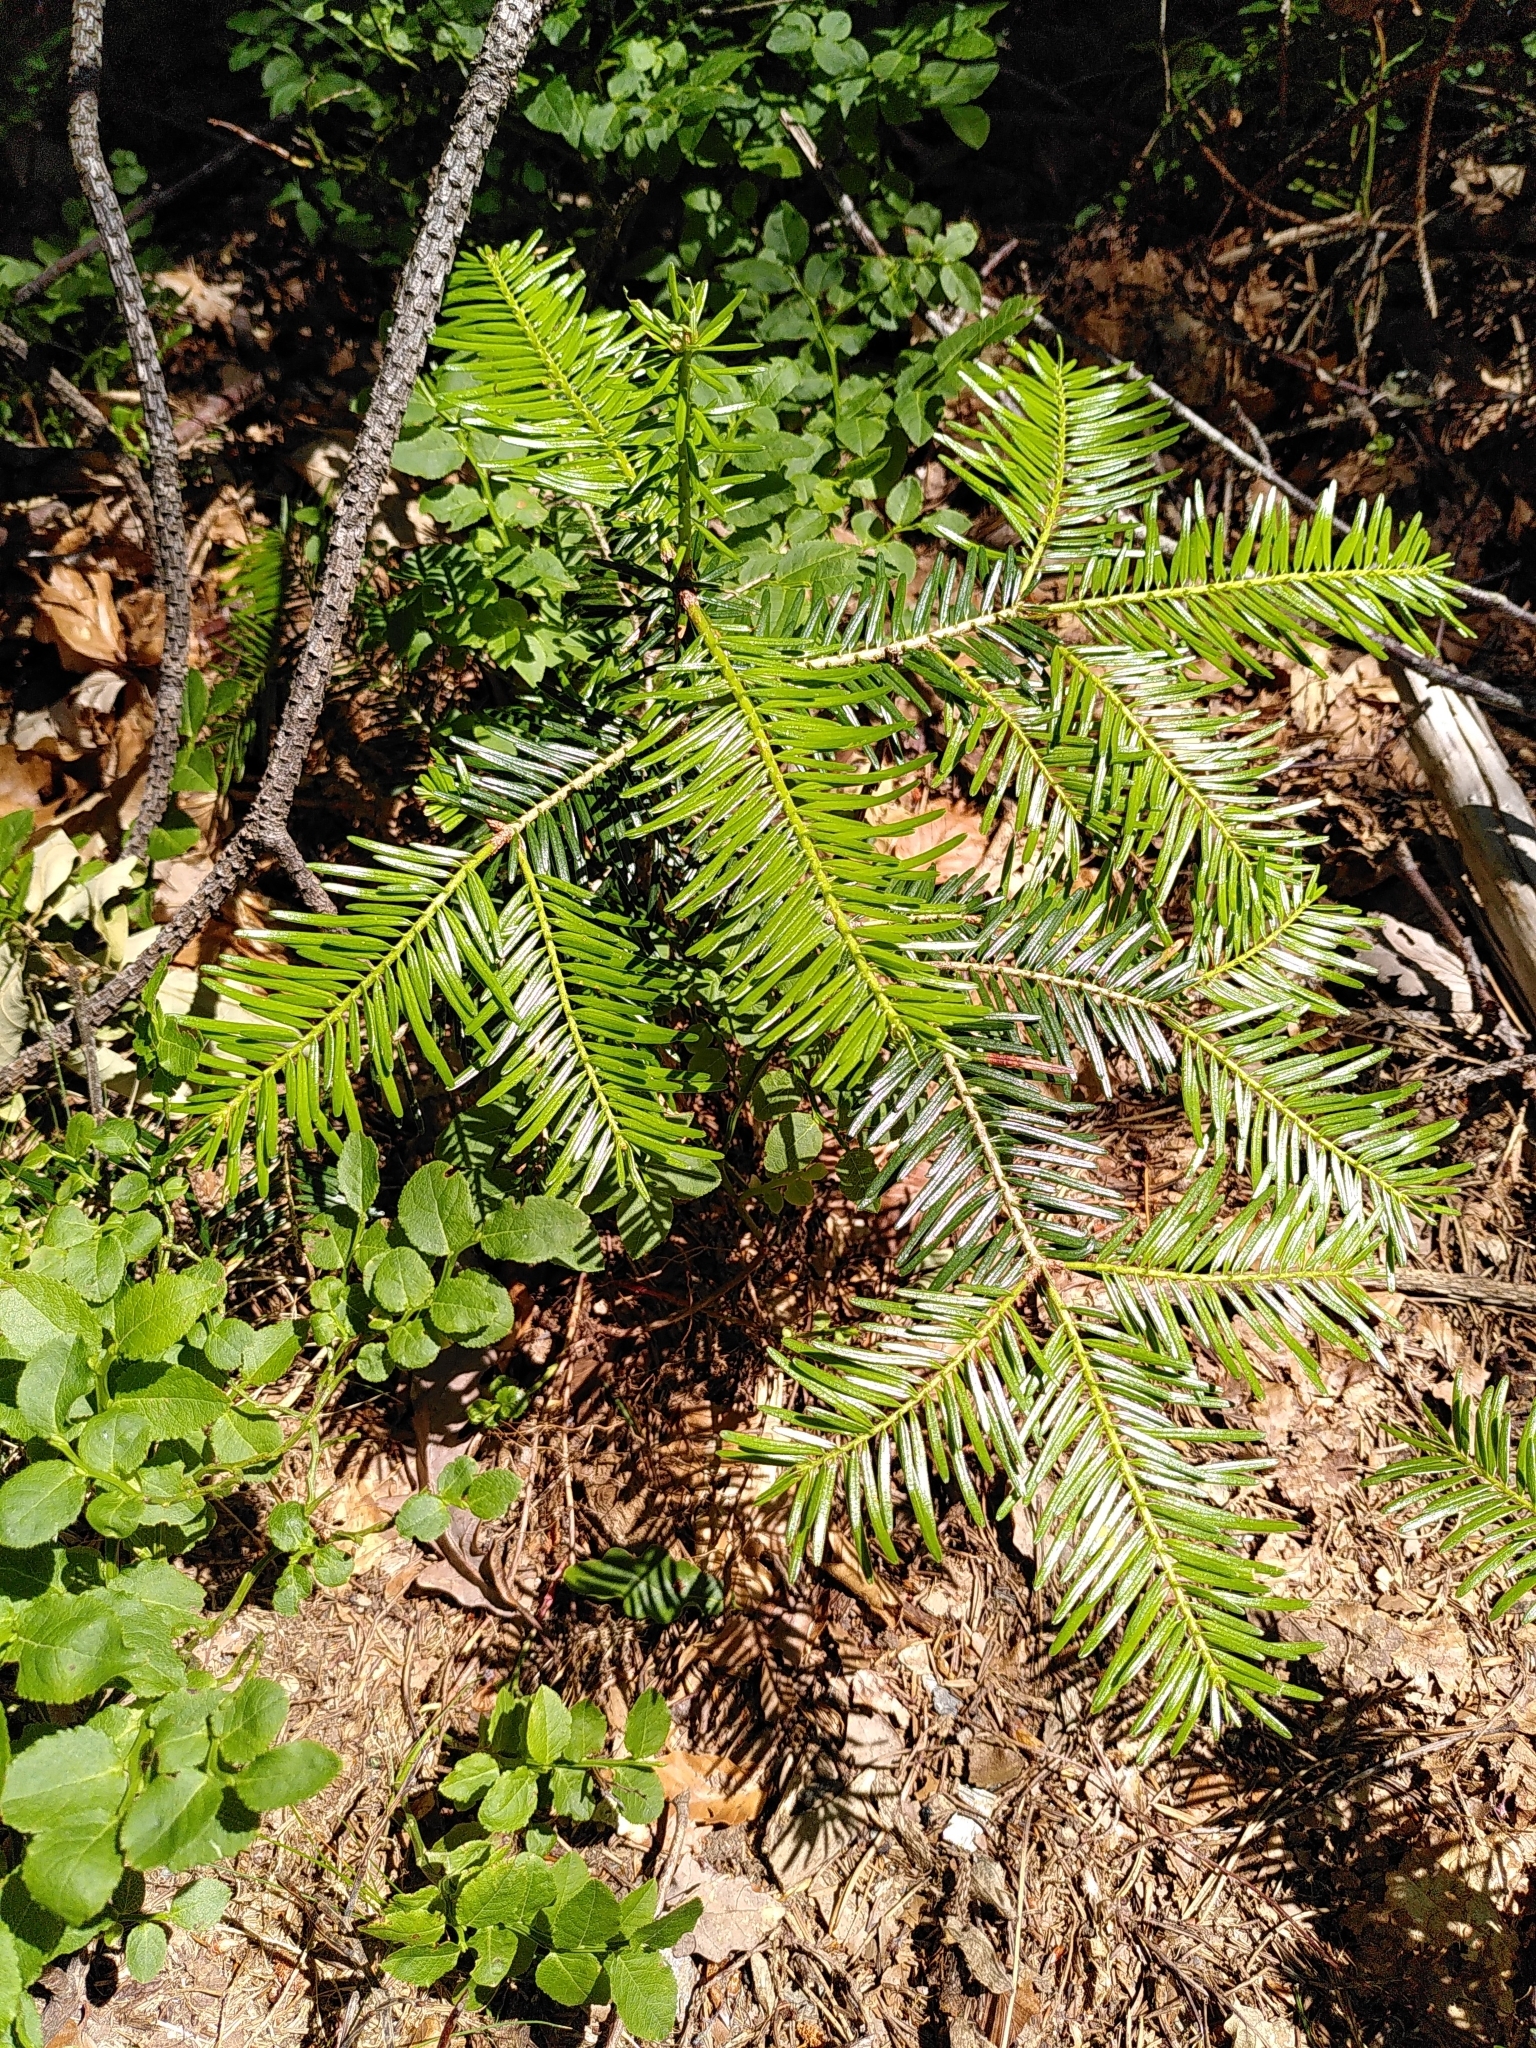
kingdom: Plantae
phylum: Tracheophyta
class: Pinopsida
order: Pinales
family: Pinaceae
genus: Abies
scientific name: Abies alba
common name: Silver fir
